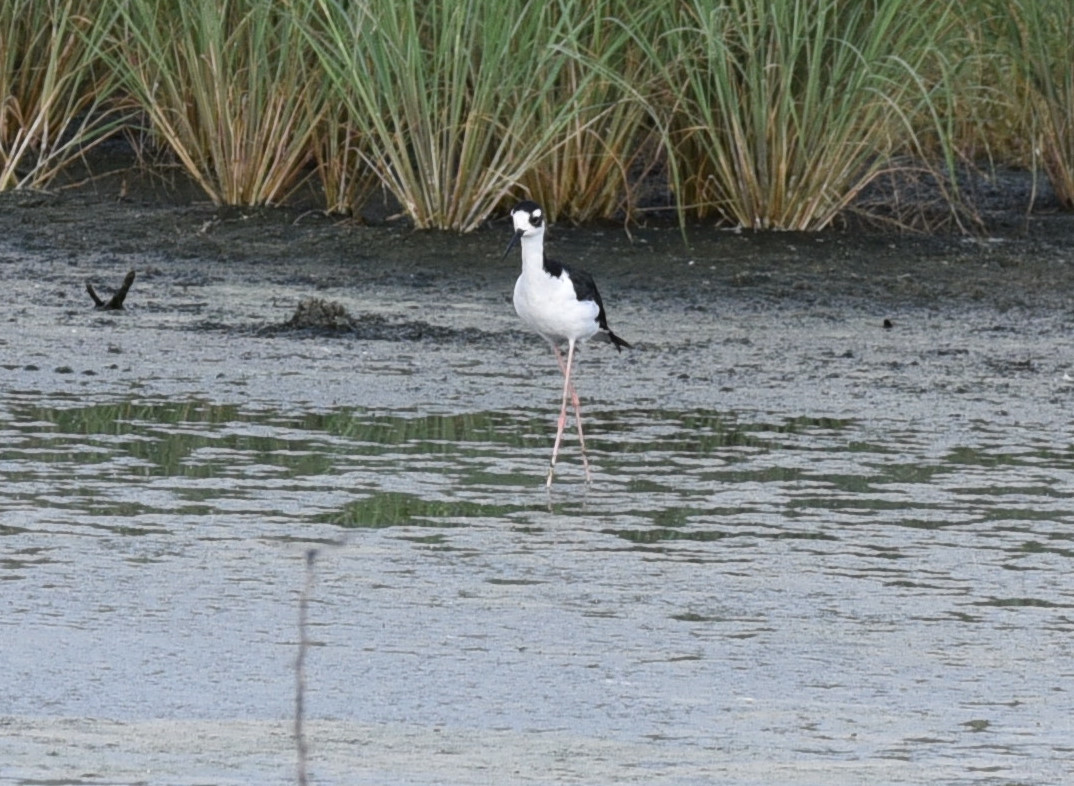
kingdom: Animalia
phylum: Chordata
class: Aves
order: Charadriiformes
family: Recurvirostridae
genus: Himantopus
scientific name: Himantopus mexicanus
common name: Black-necked stilt
